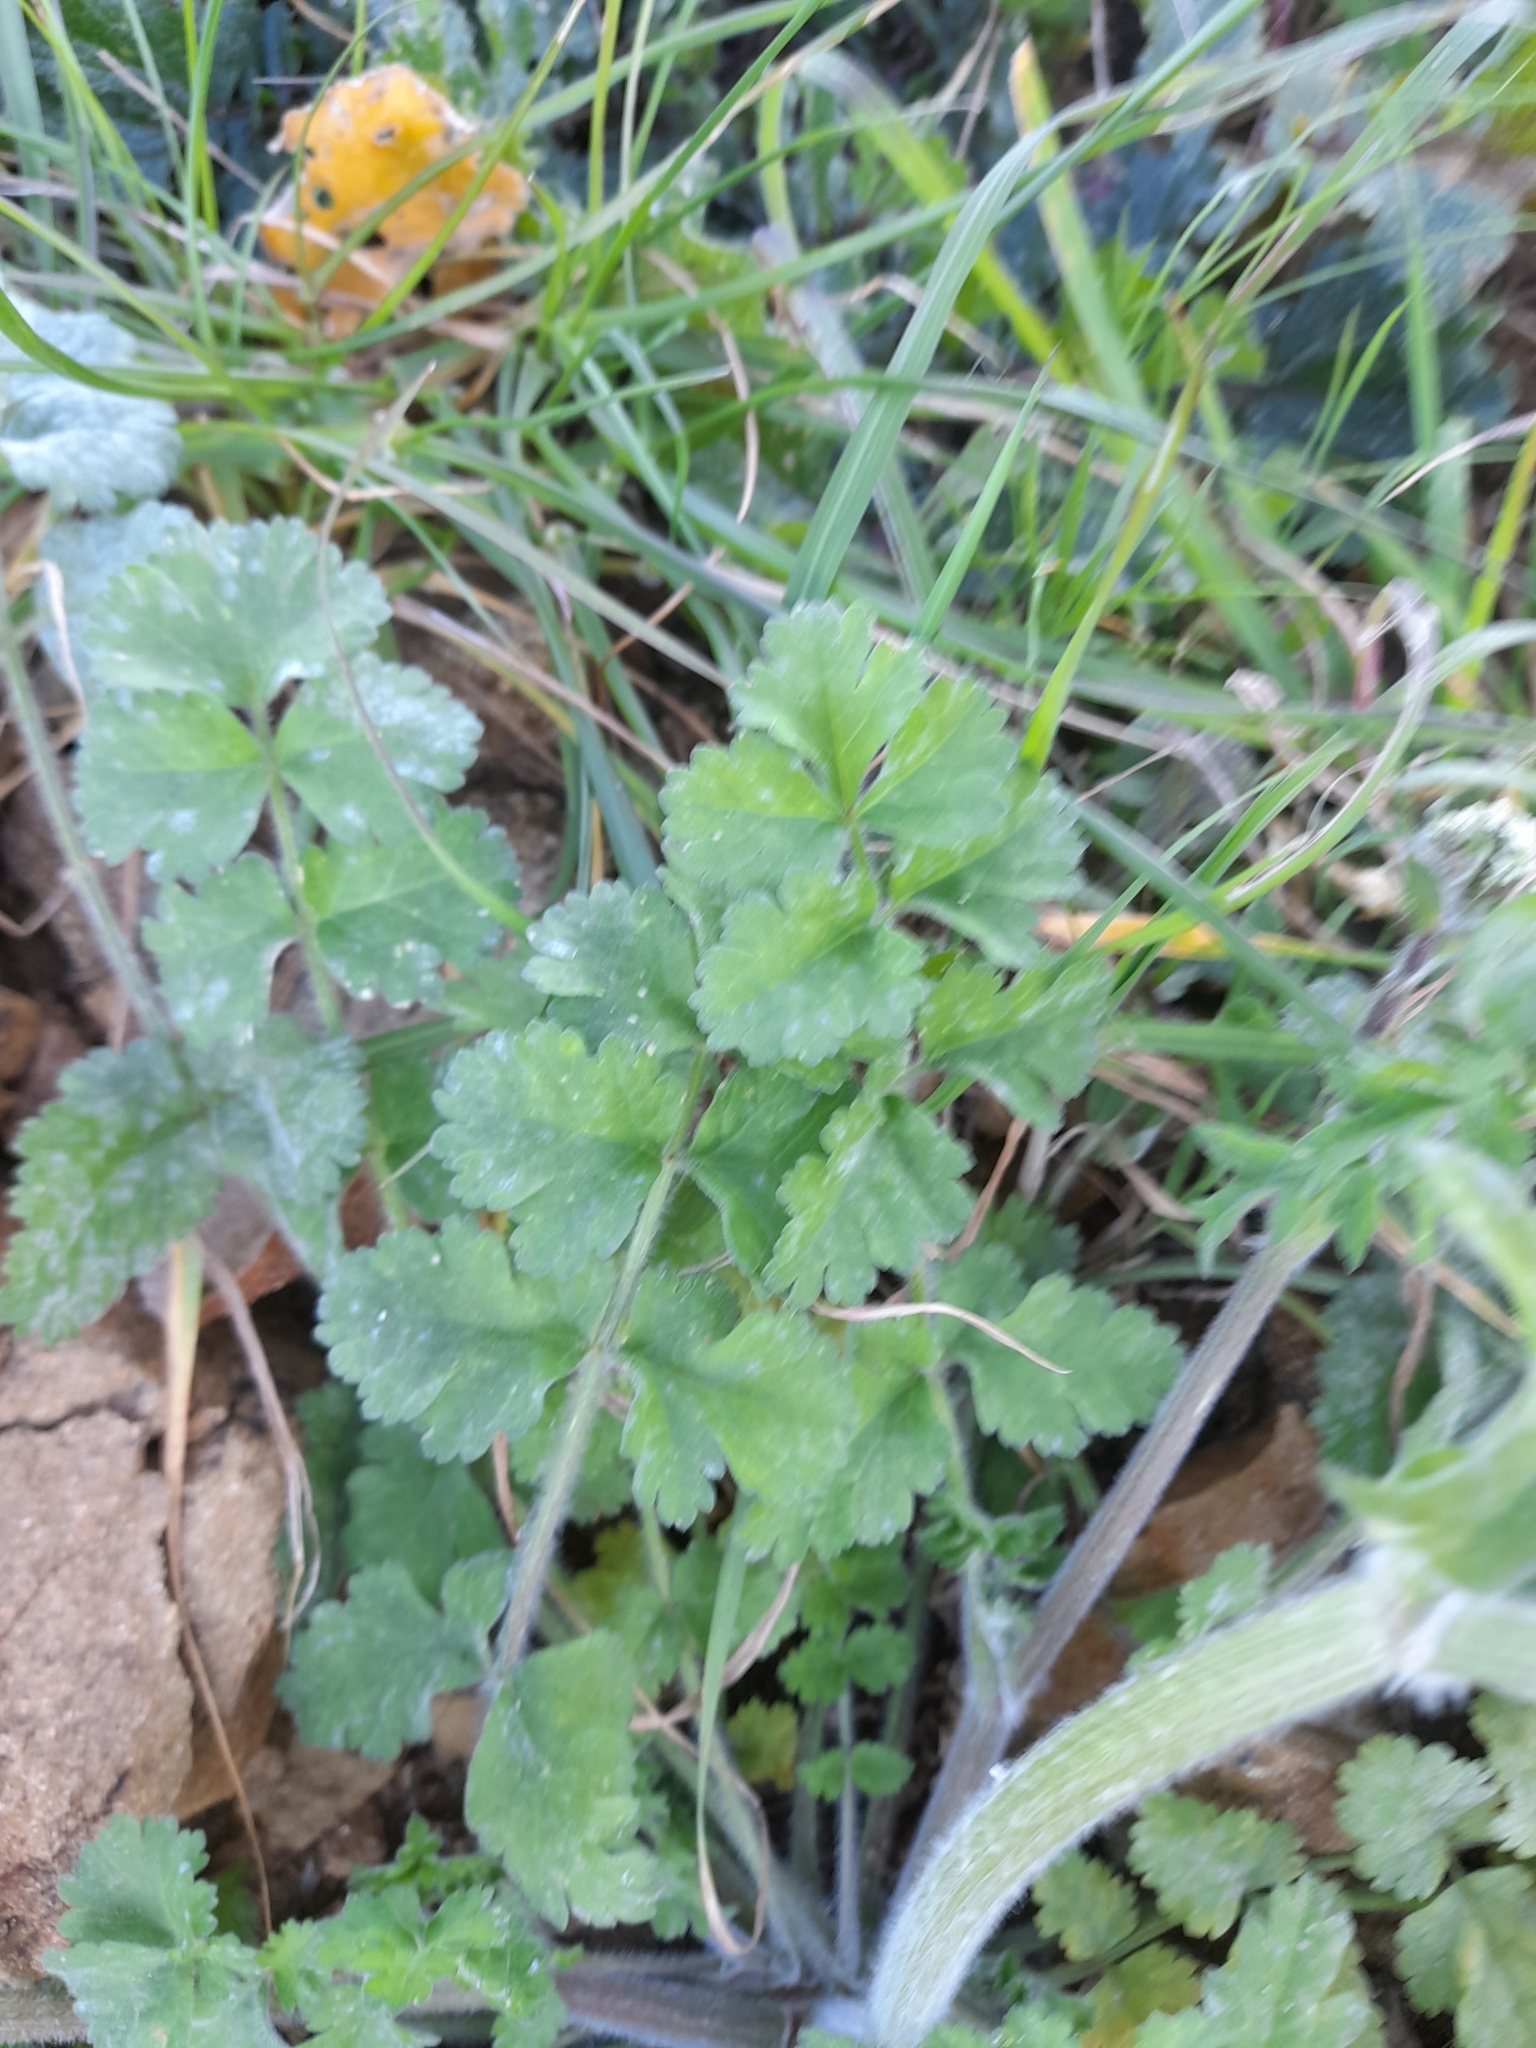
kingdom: Plantae
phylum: Tracheophyta
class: Magnoliopsida
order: Apiales
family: Apiaceae
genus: Tordylium
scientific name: Tordylium apulum
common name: Mediterranean hartwort
